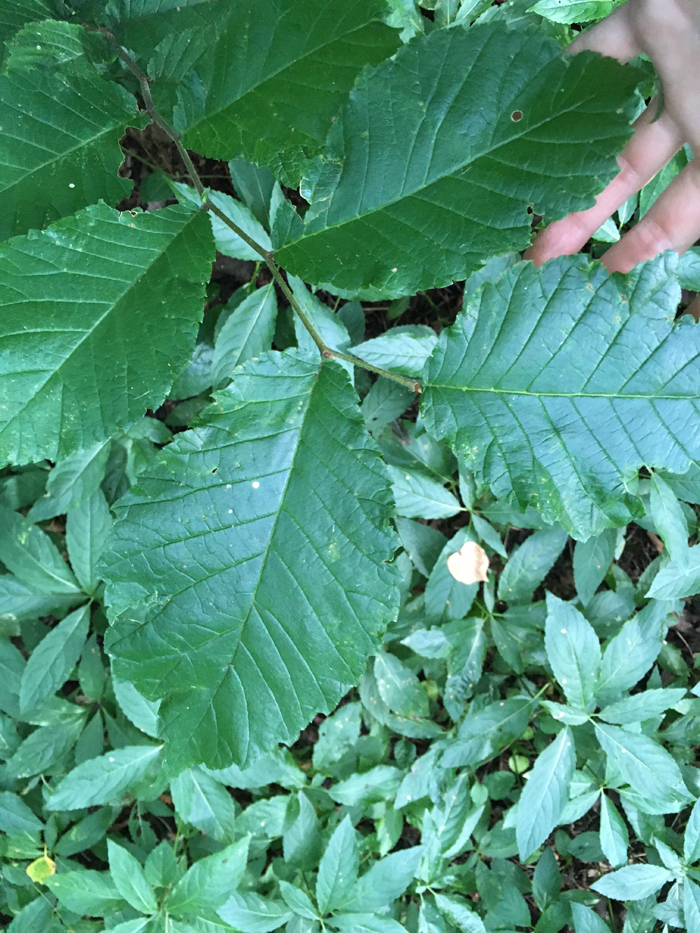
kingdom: Plantae
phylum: Tracheophyta
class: Magnoliopsida
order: Rosales
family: Ulmaceae
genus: Ulmus
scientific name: Ulmus glabra
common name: Wych elm
